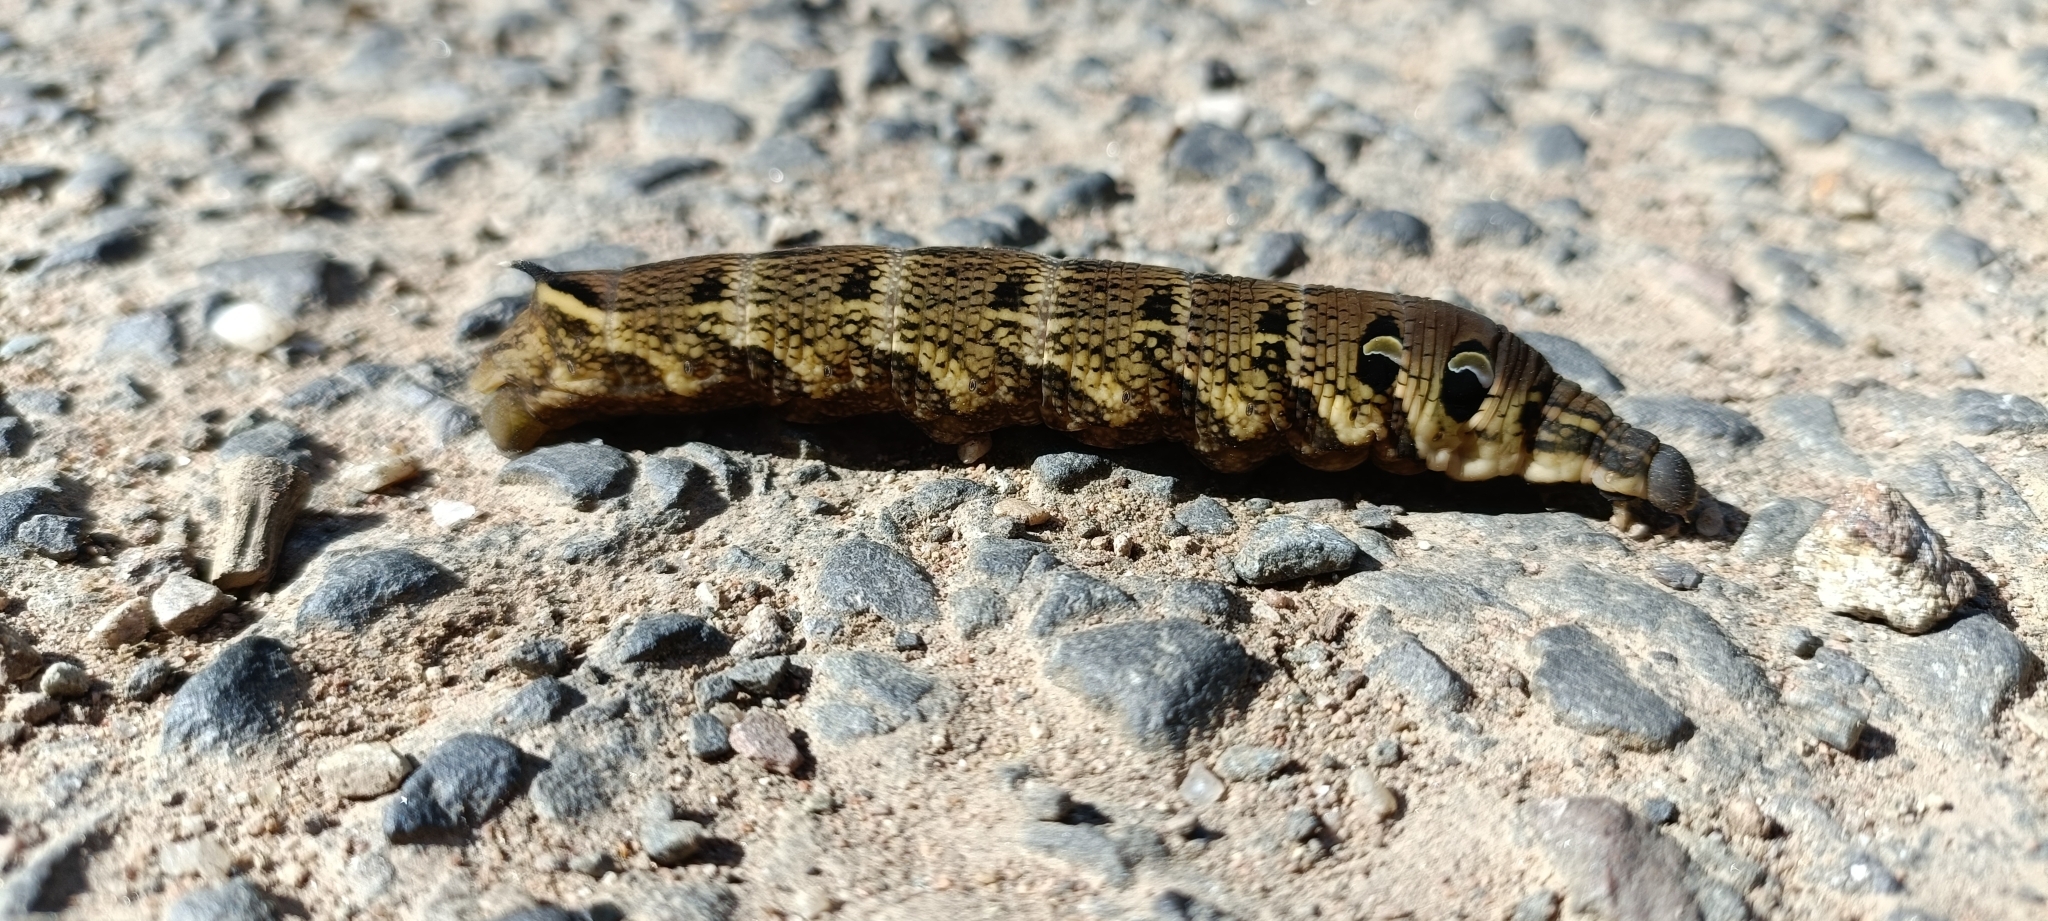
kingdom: Animalia
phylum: Arthropoda
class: Insecta
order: Lepidoptera
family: Sphingidae
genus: Deilephila
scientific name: Deilephila elpenor
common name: Elephant hawk-moth
